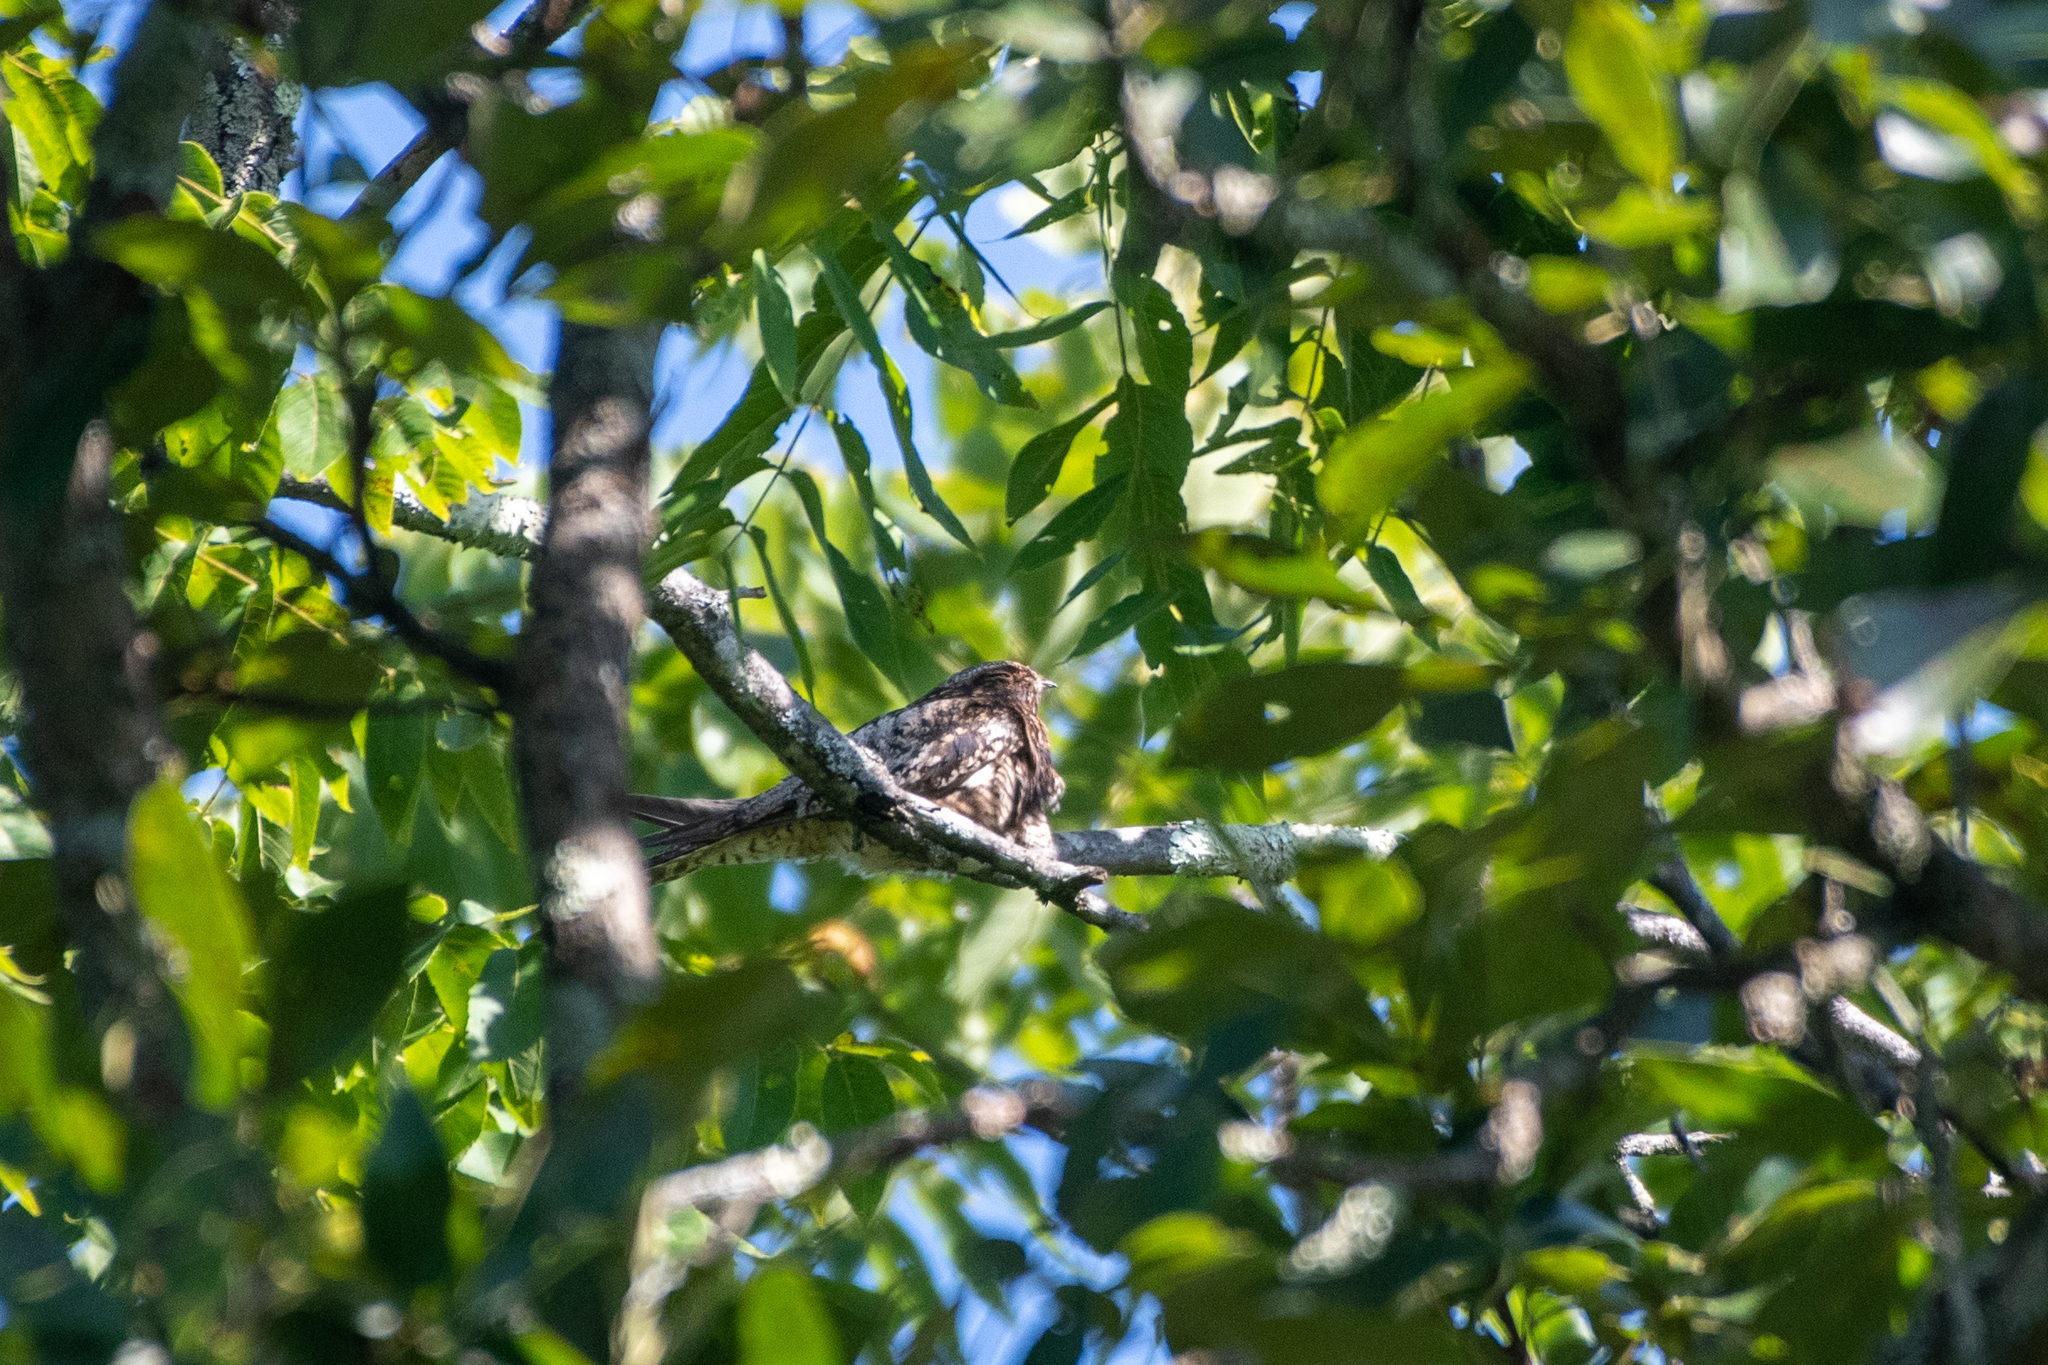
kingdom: Animalia
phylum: Chordata
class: Aves
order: Caprimulgiformes
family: Caprimulgidae
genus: Chordeiles
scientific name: Chordeiles minor
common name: Common nighthawk
